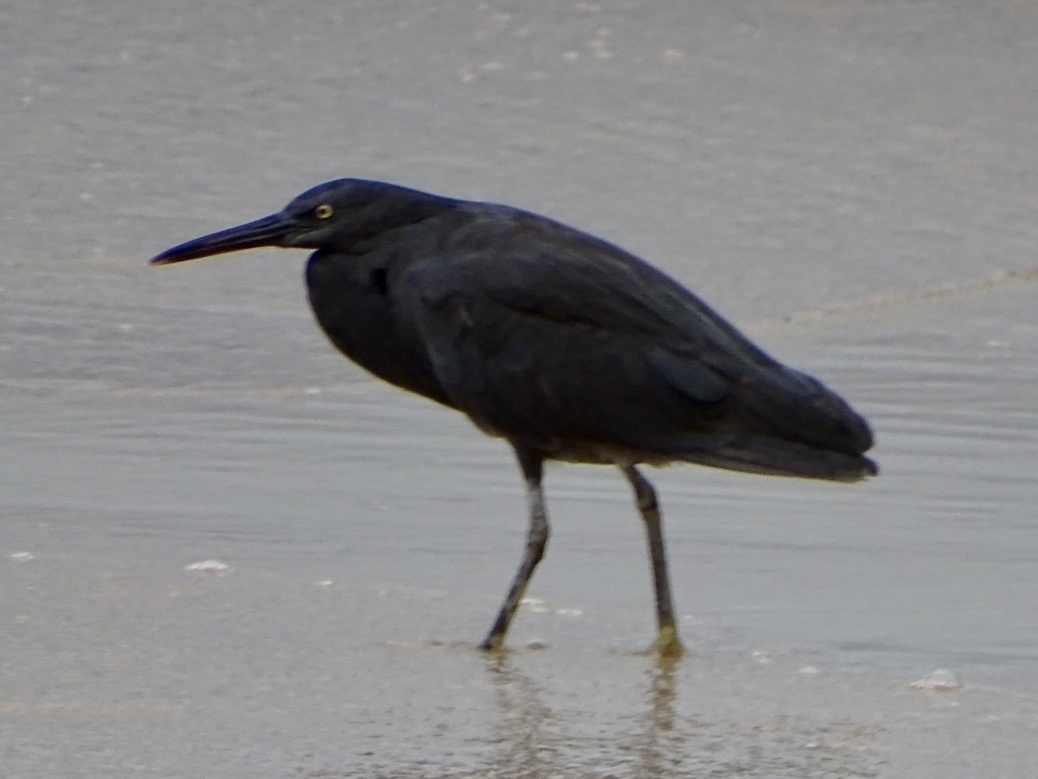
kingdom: Animalia
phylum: Chordata
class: Aves
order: Pelecaniformes
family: Ardeidae
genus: Egretta
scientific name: Egretta sacra
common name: Pacific reef heron
